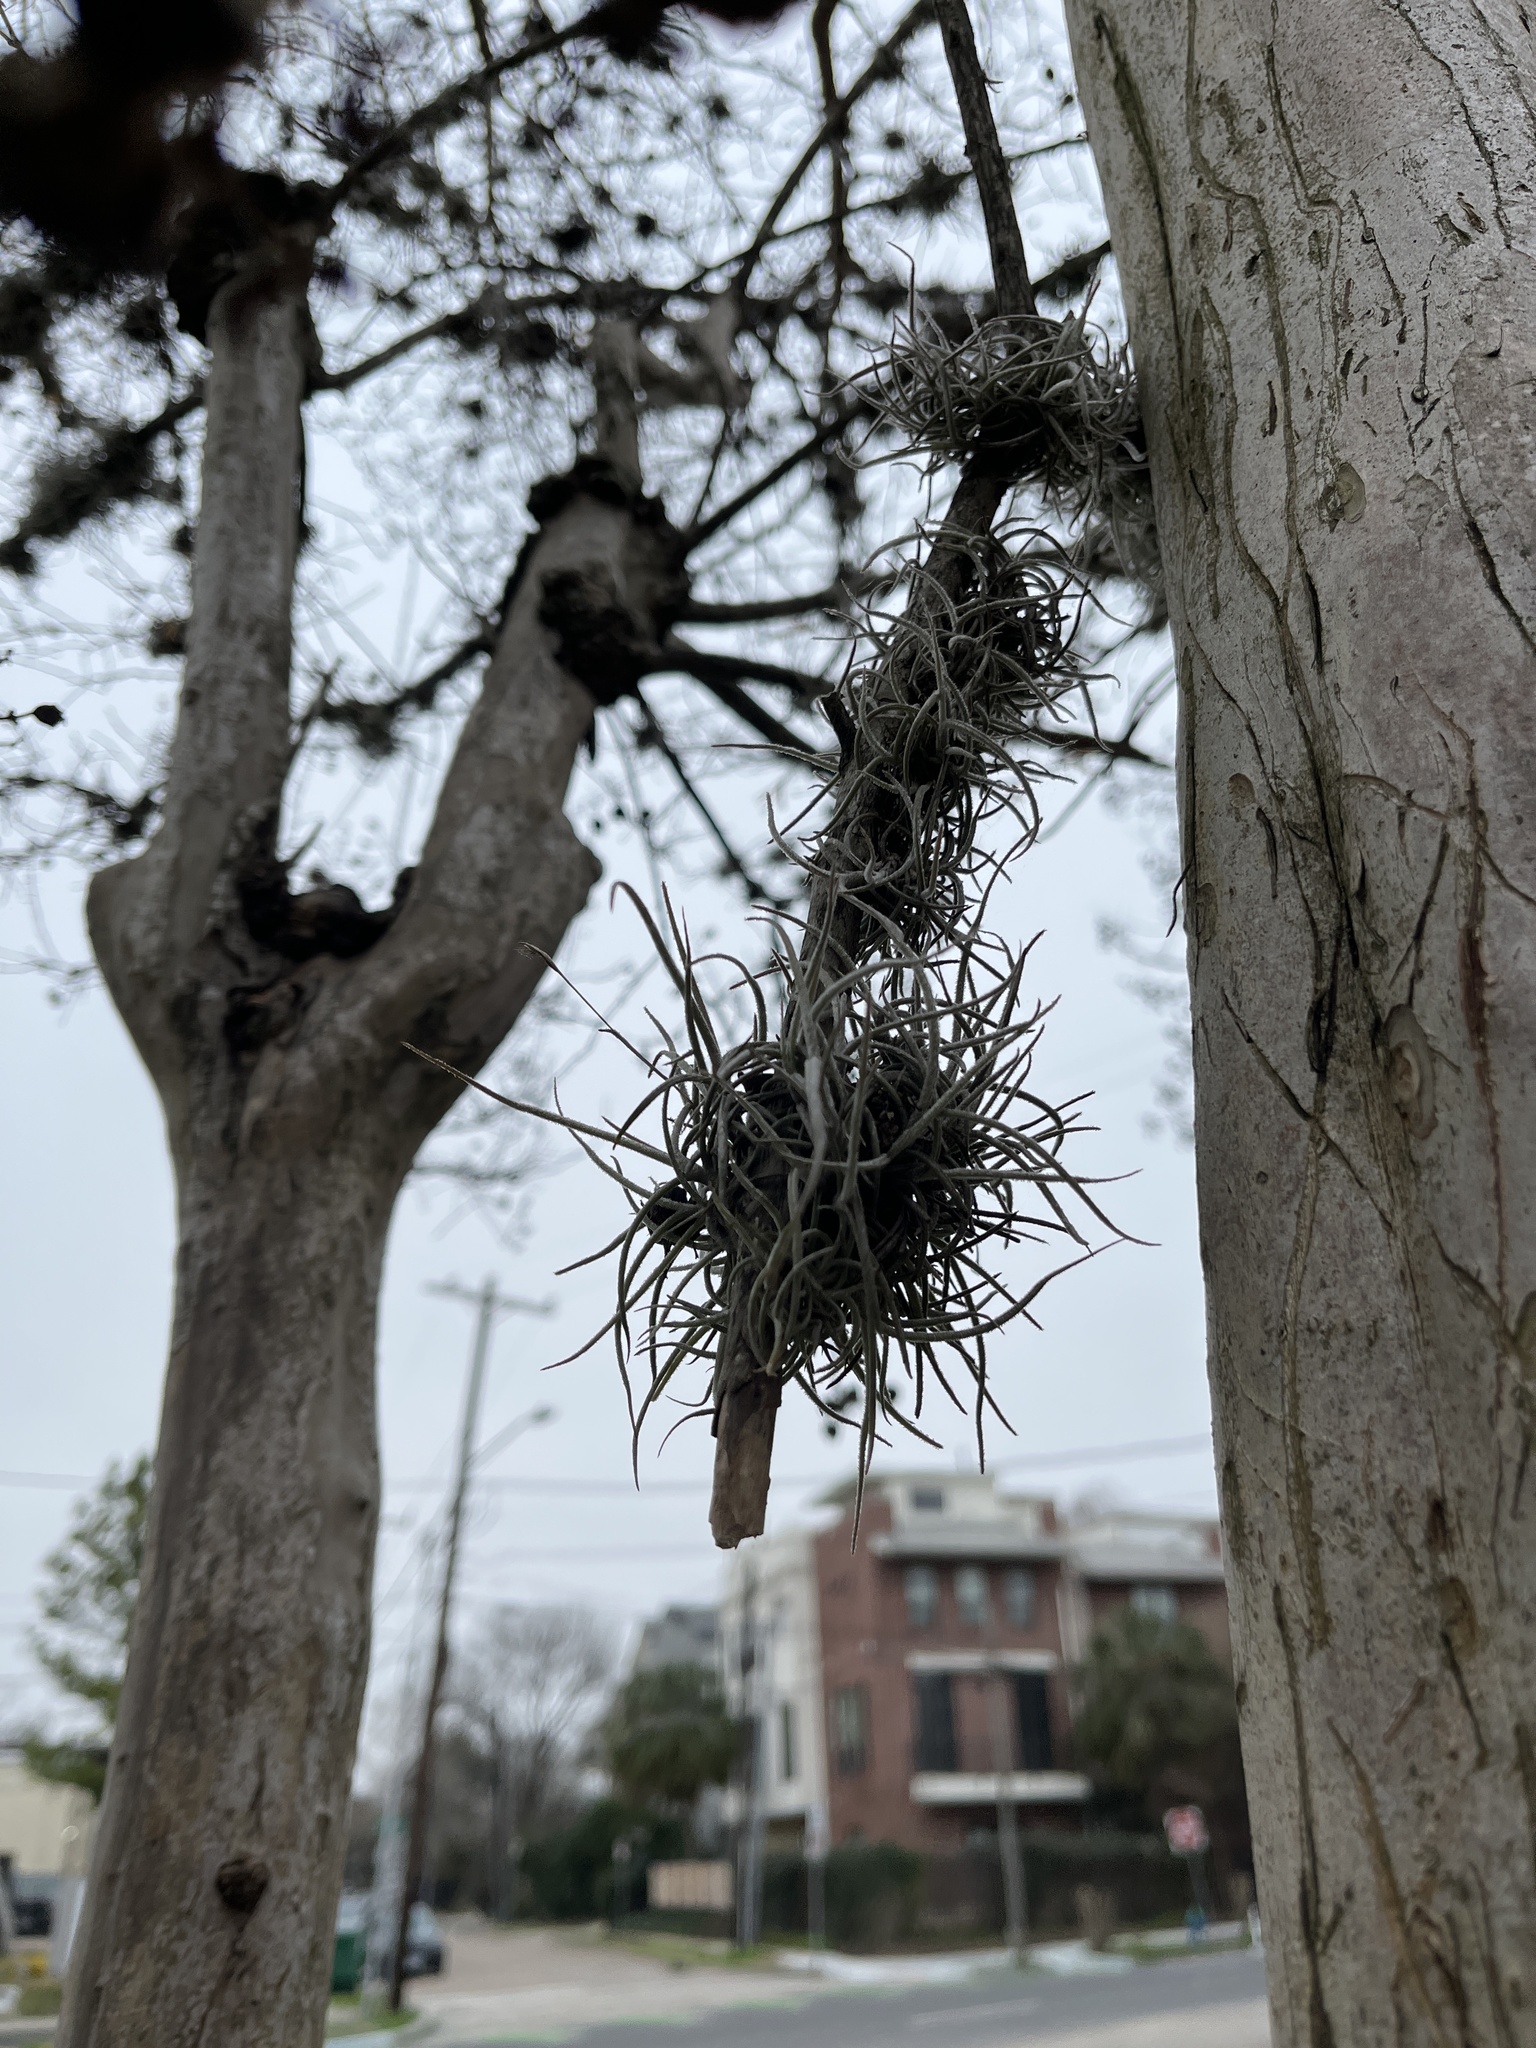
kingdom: Plantae
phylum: Tracheophyta
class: Liliopsida
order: Poales
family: Bromeliaceae
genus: Tillandsia
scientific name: Tillandsia recurvata
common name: Small ballmoss
